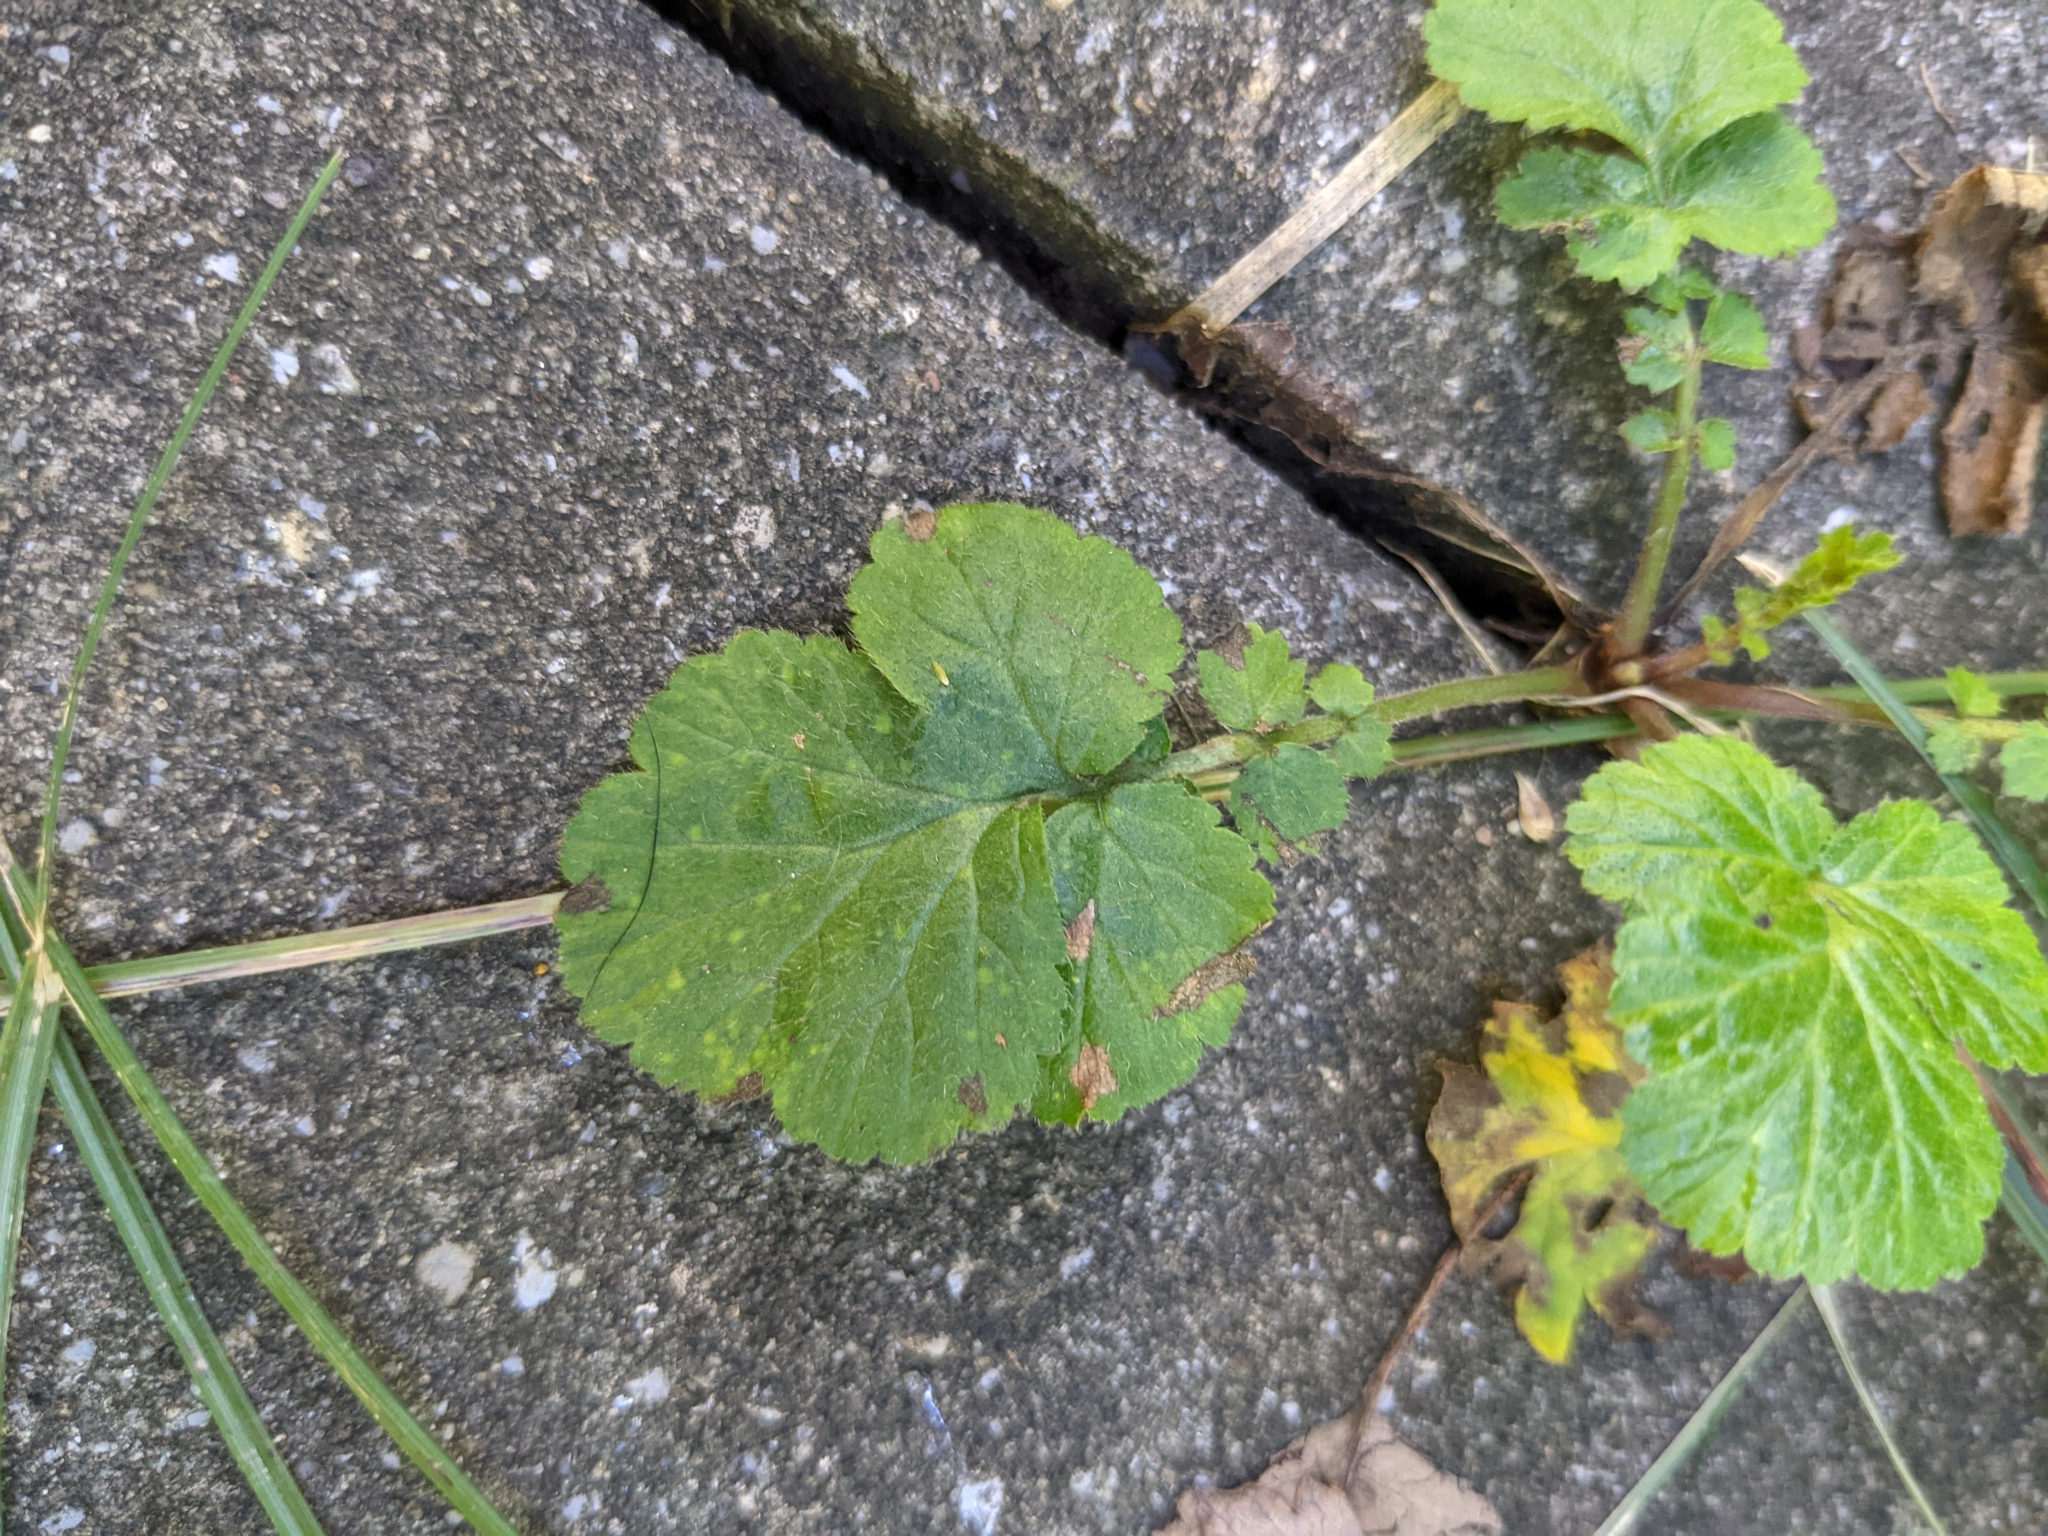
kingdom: Plantae
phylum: Tracheophyta
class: Magnoliopsida
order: Rosales
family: Rosaceae
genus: Geum
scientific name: Geum urbanum
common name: Wood avens
